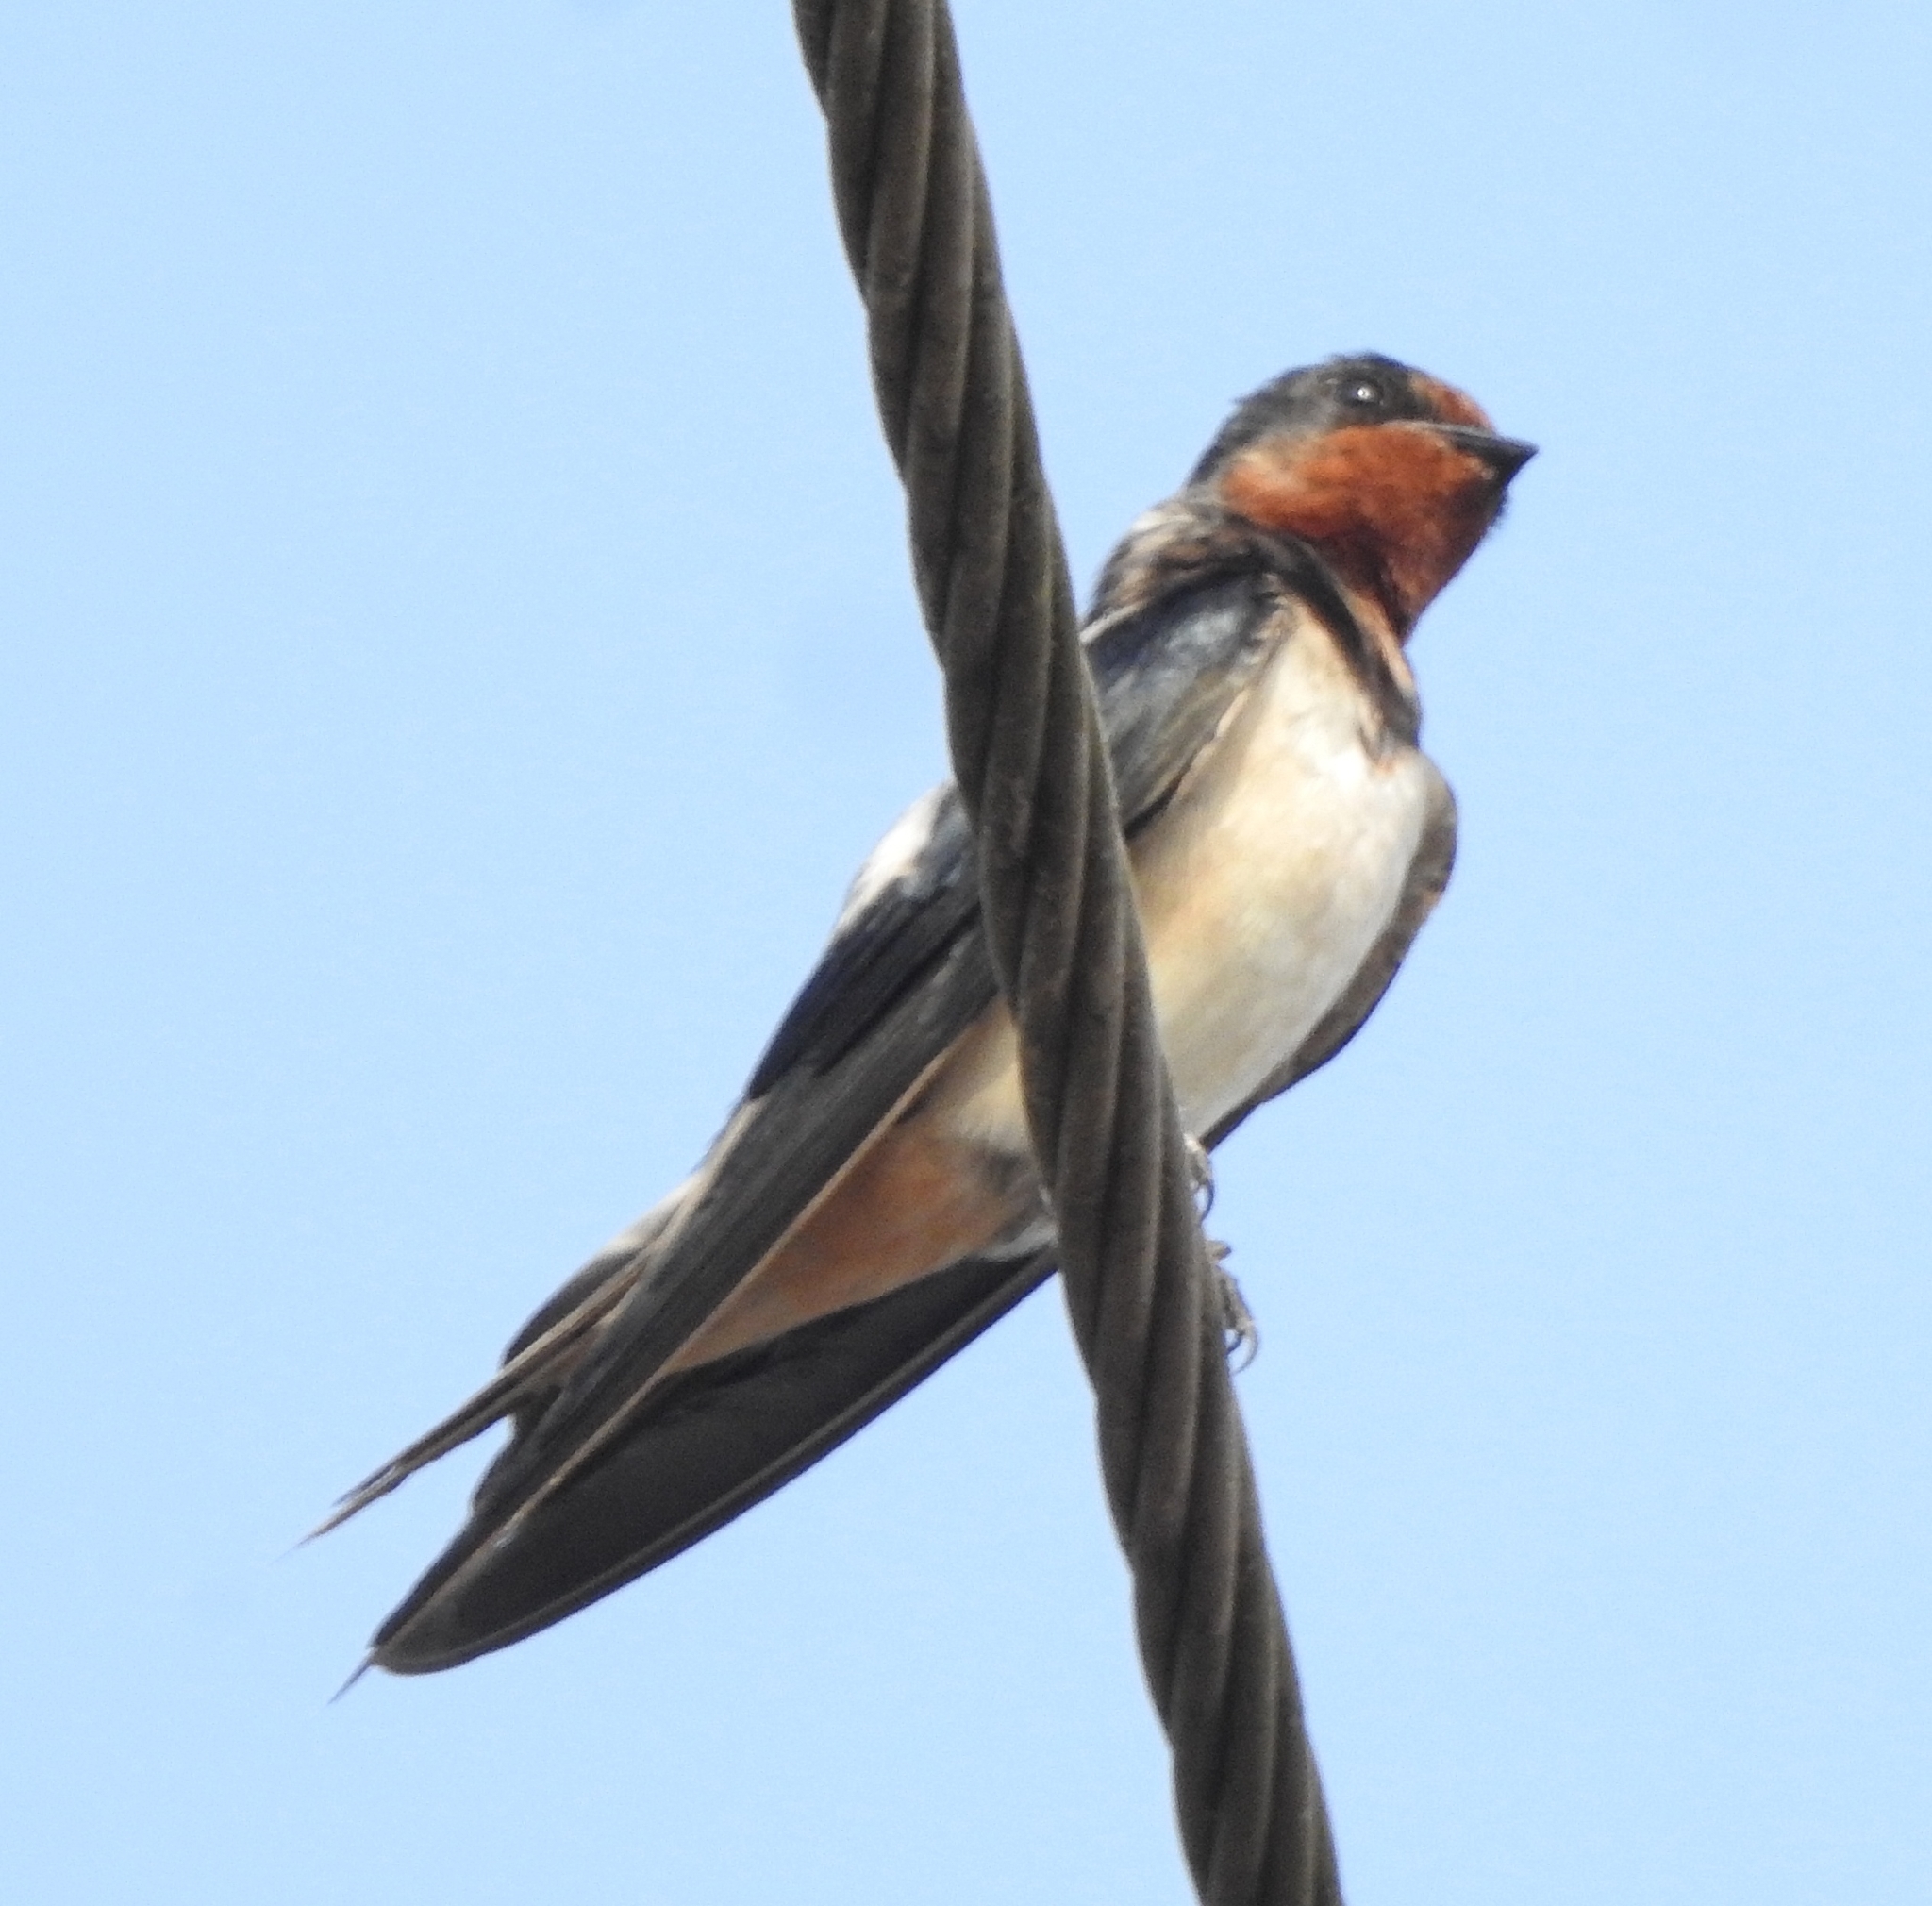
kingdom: Animalia
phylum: Chordata
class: Aves
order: Passeriformes
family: Hirundinidae
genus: Hirundo
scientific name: Hirundo rustica
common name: Barn swallow
